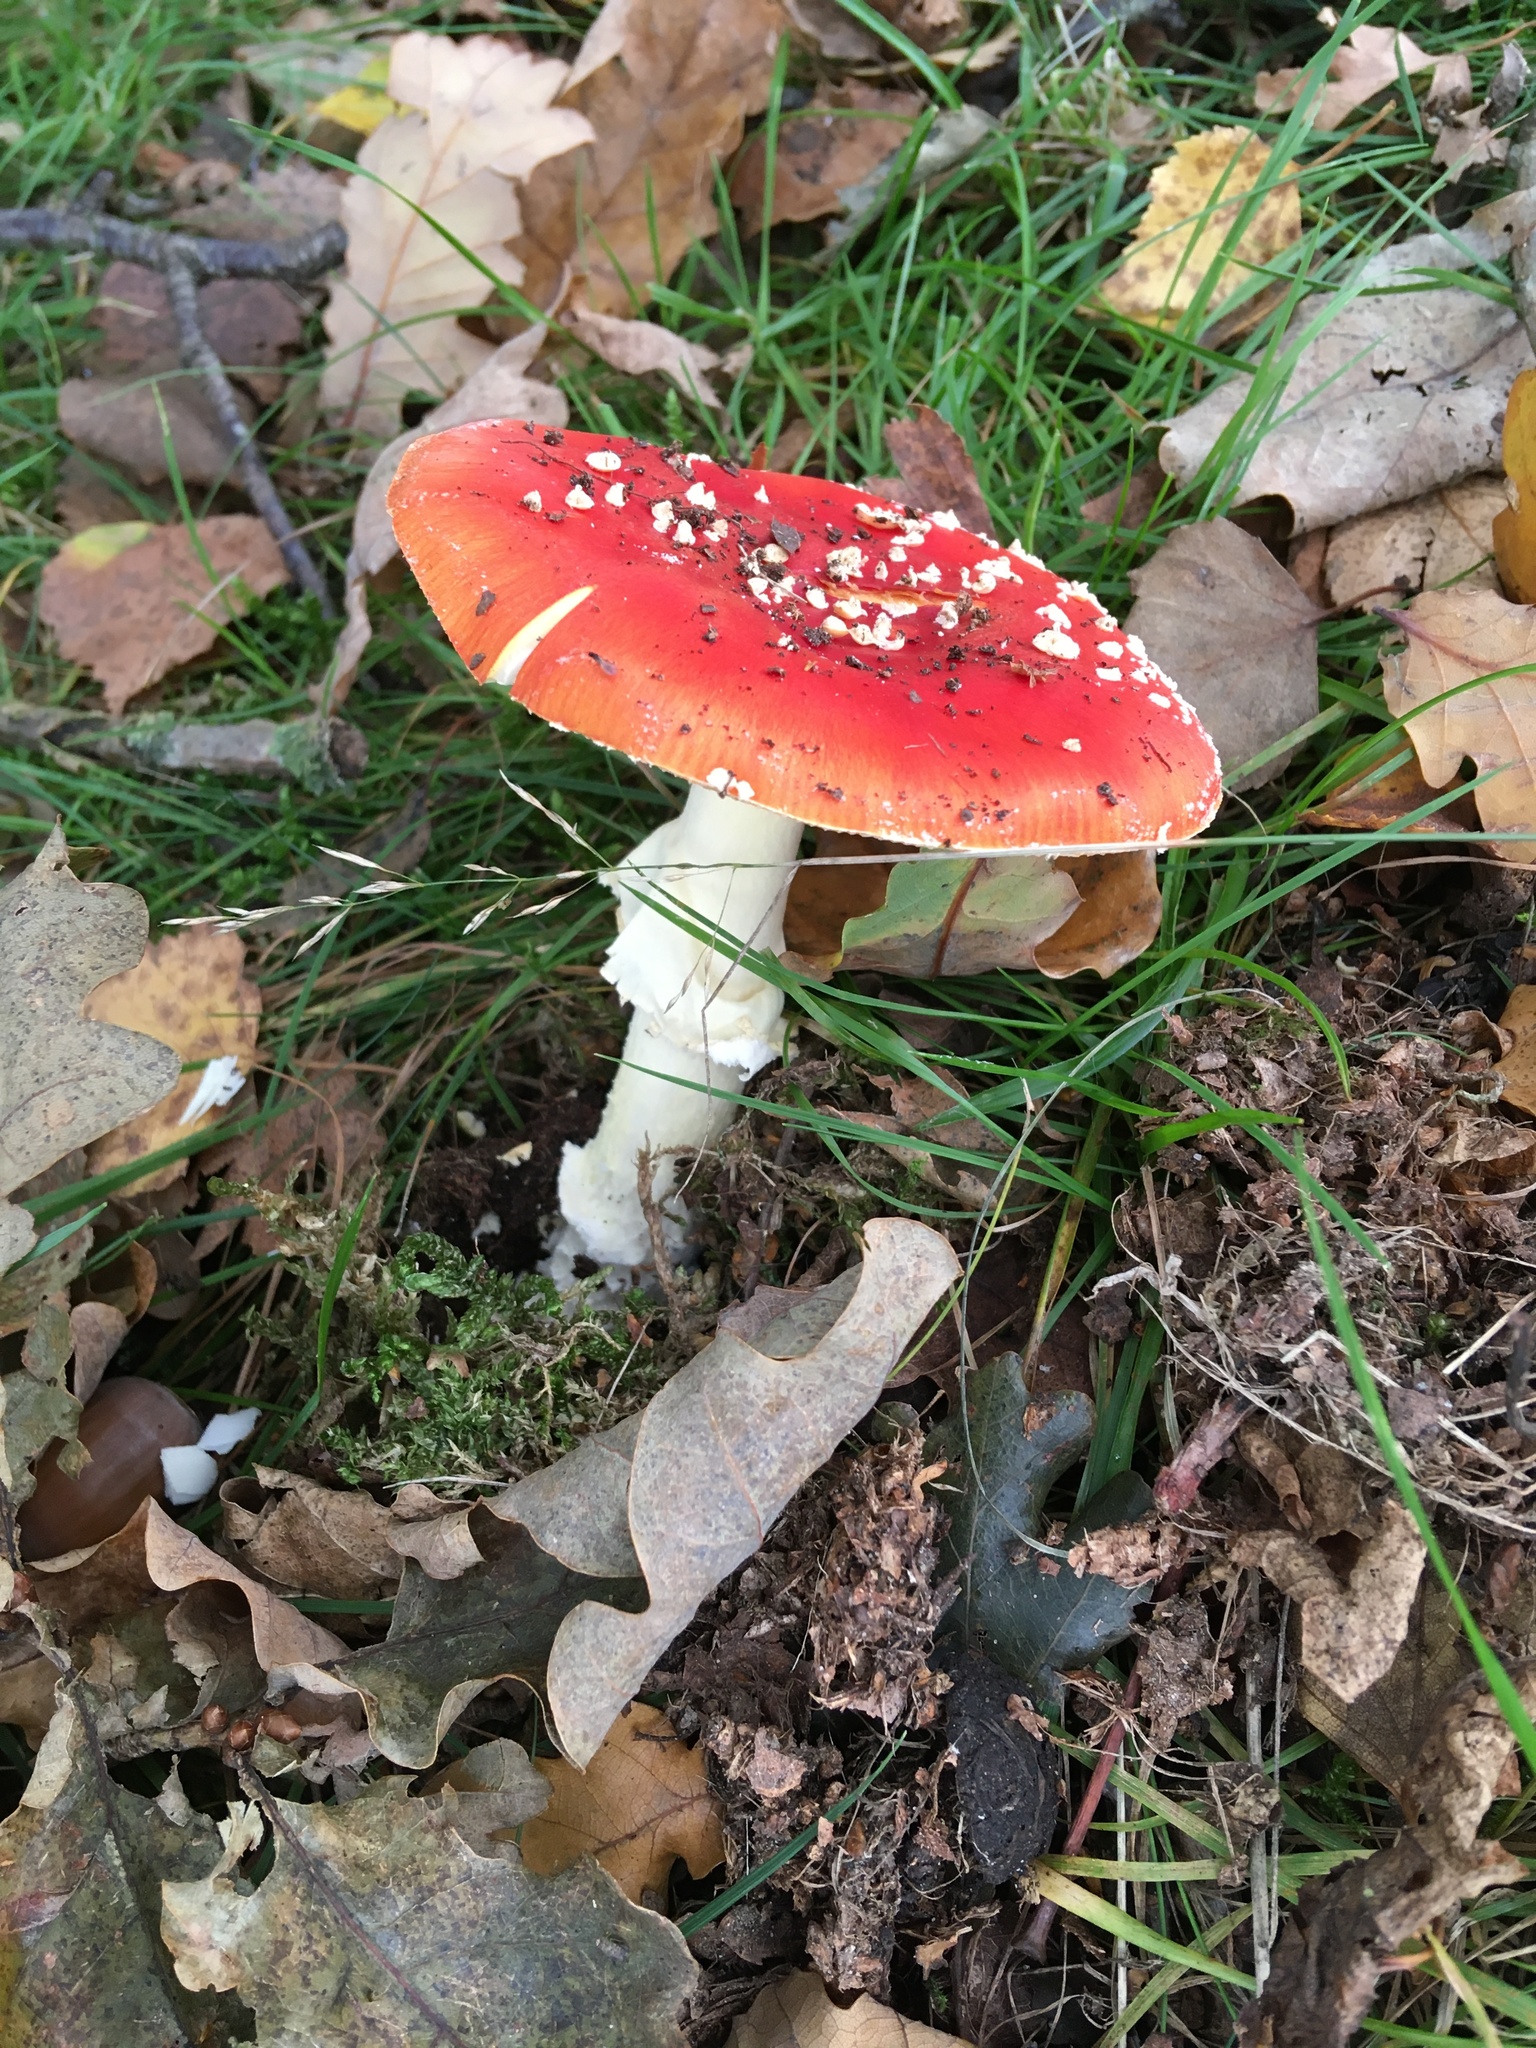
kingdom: Fungi
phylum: Basidiomycota
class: Agaricomycetes
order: Agaricales
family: Amanitaceae
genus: Amanita
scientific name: Amanita muscaria
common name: Fly agaric
